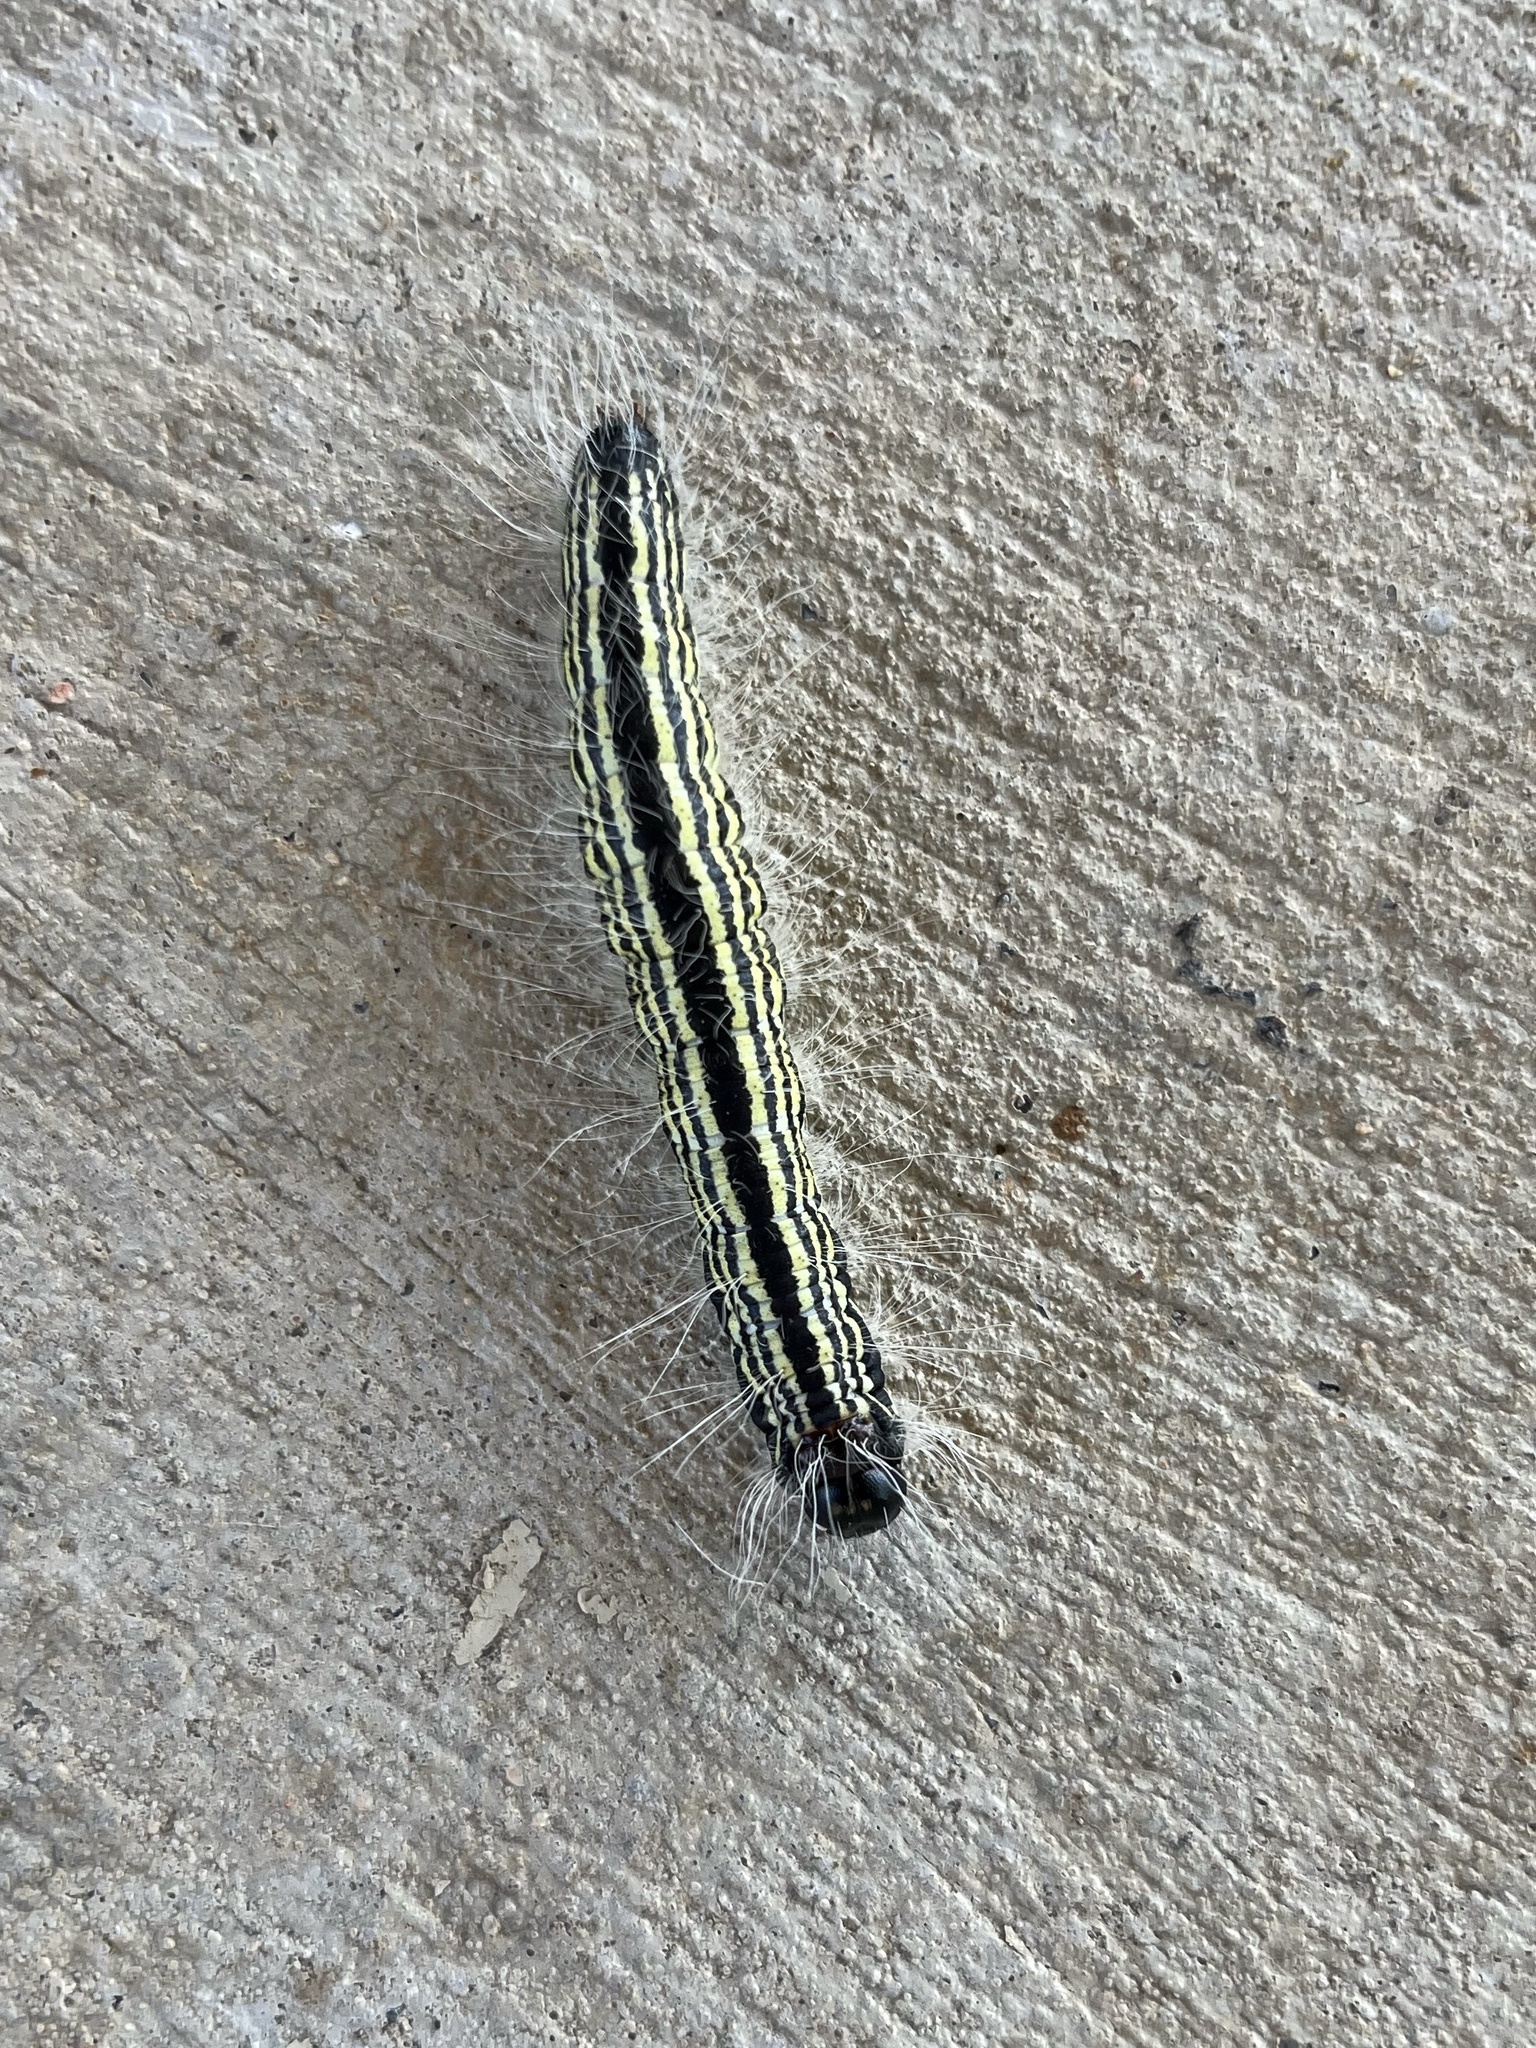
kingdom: Animalia
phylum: Arthropoda
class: Insecta
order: Lepidoptera
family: Notodontidae
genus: Datana
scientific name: Datana contracta
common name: Contracted datana
